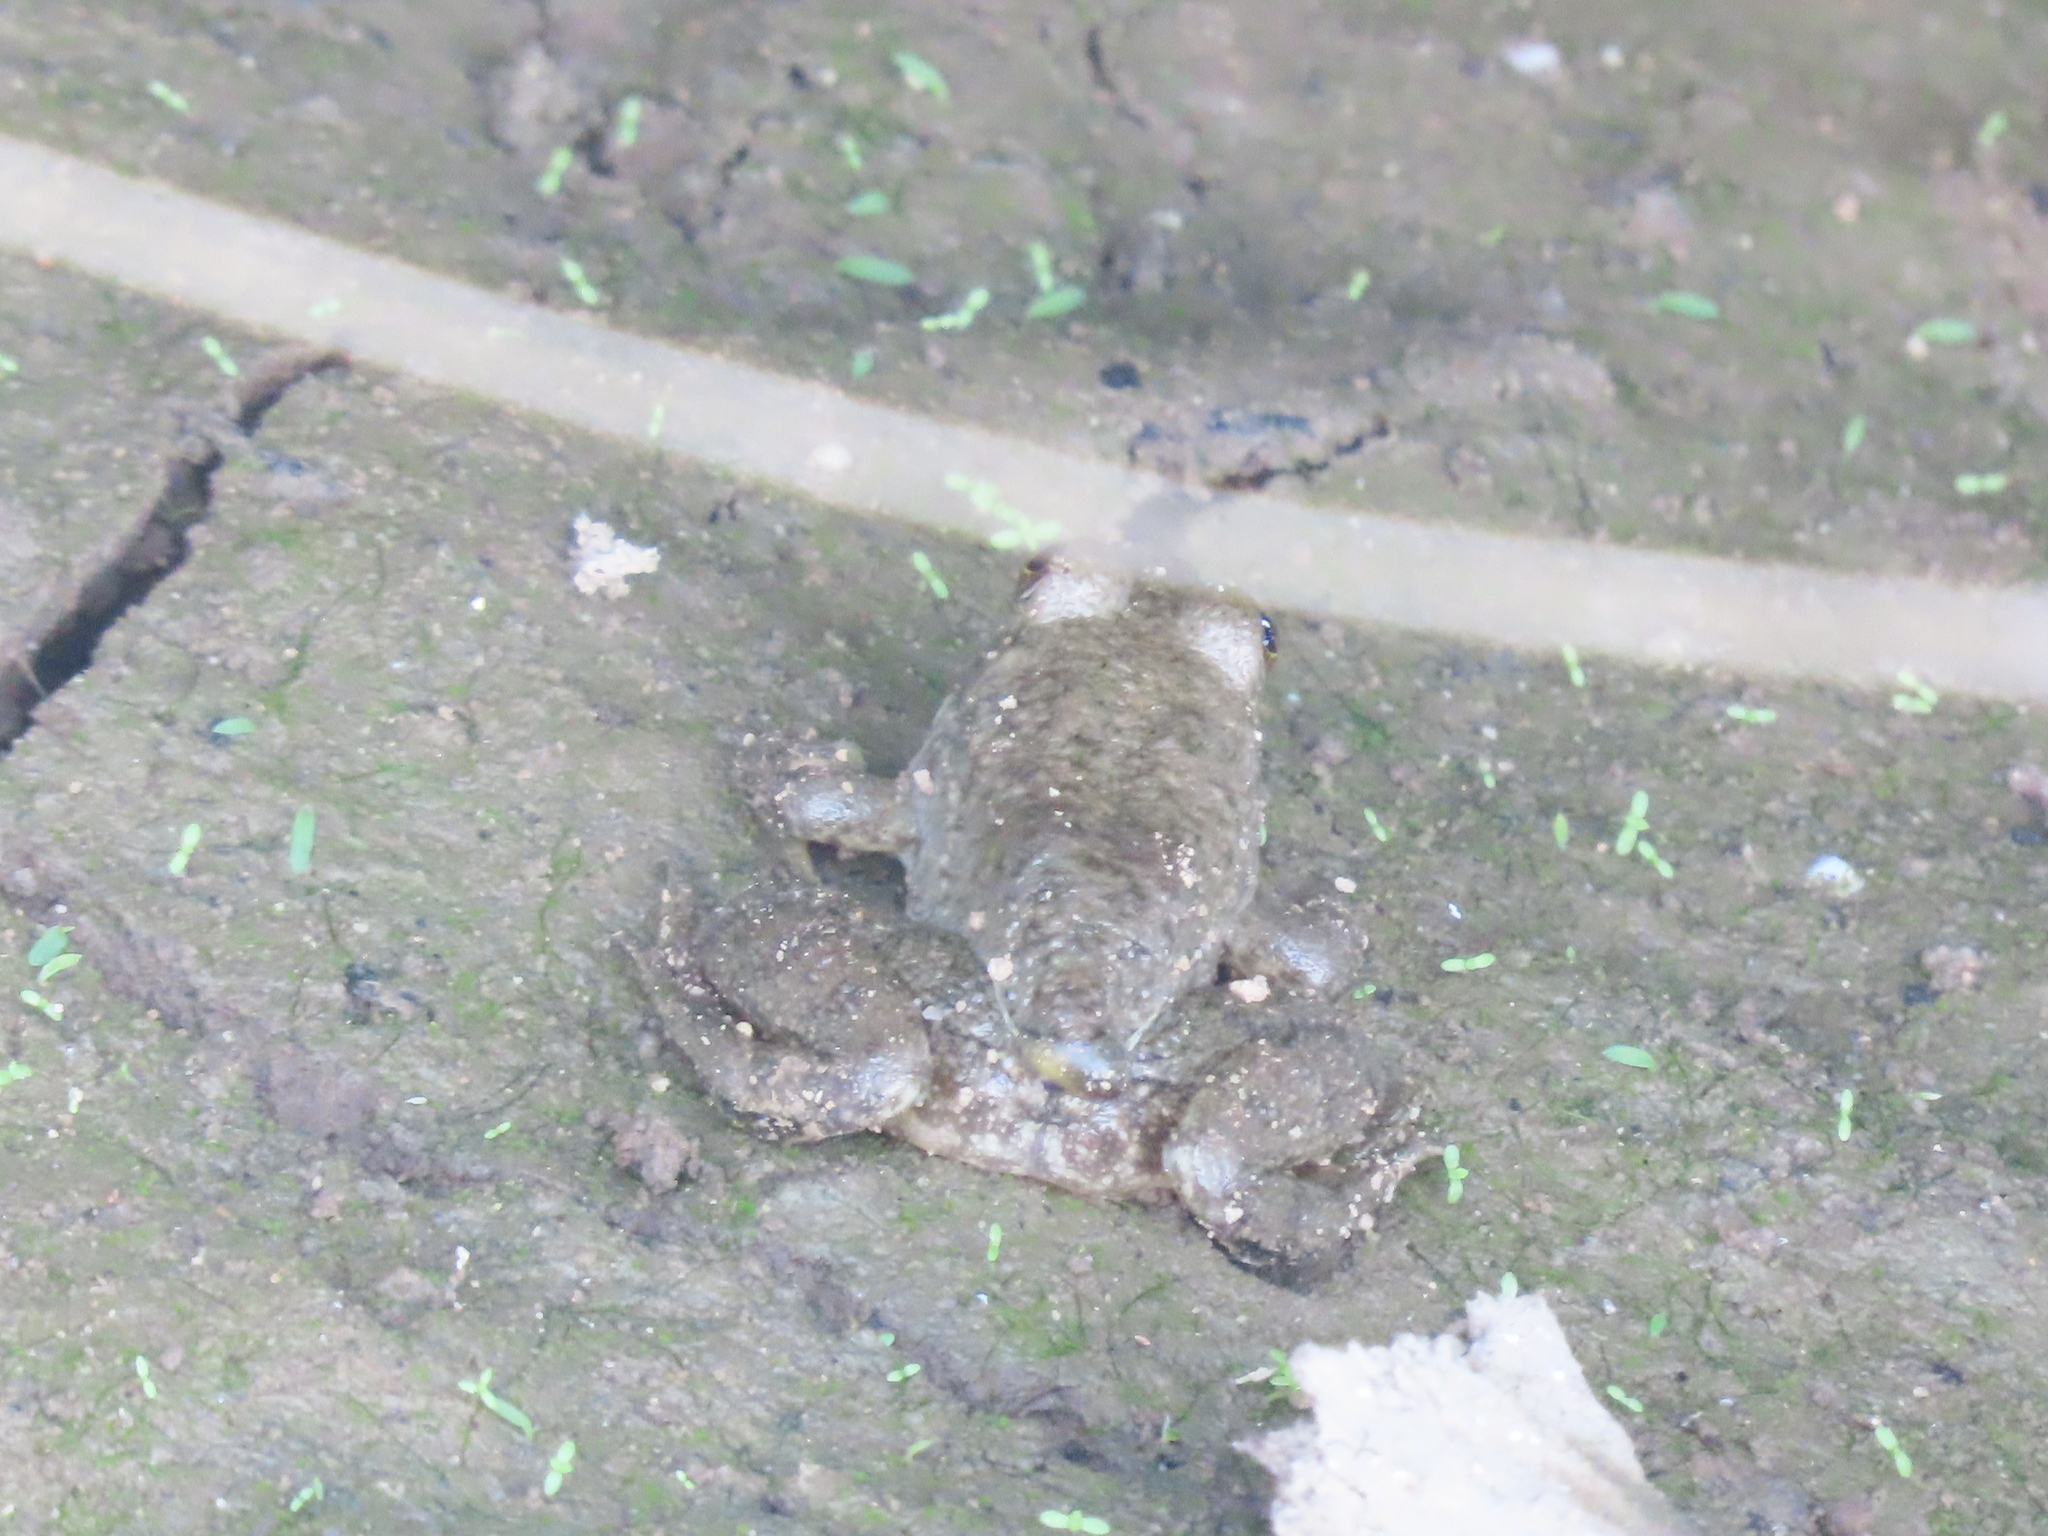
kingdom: Animalia
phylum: Chordata
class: Amphibia
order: Anura
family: Ranidae
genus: Lithobates
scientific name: Lithobates catesbeianus
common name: American bullfrog
